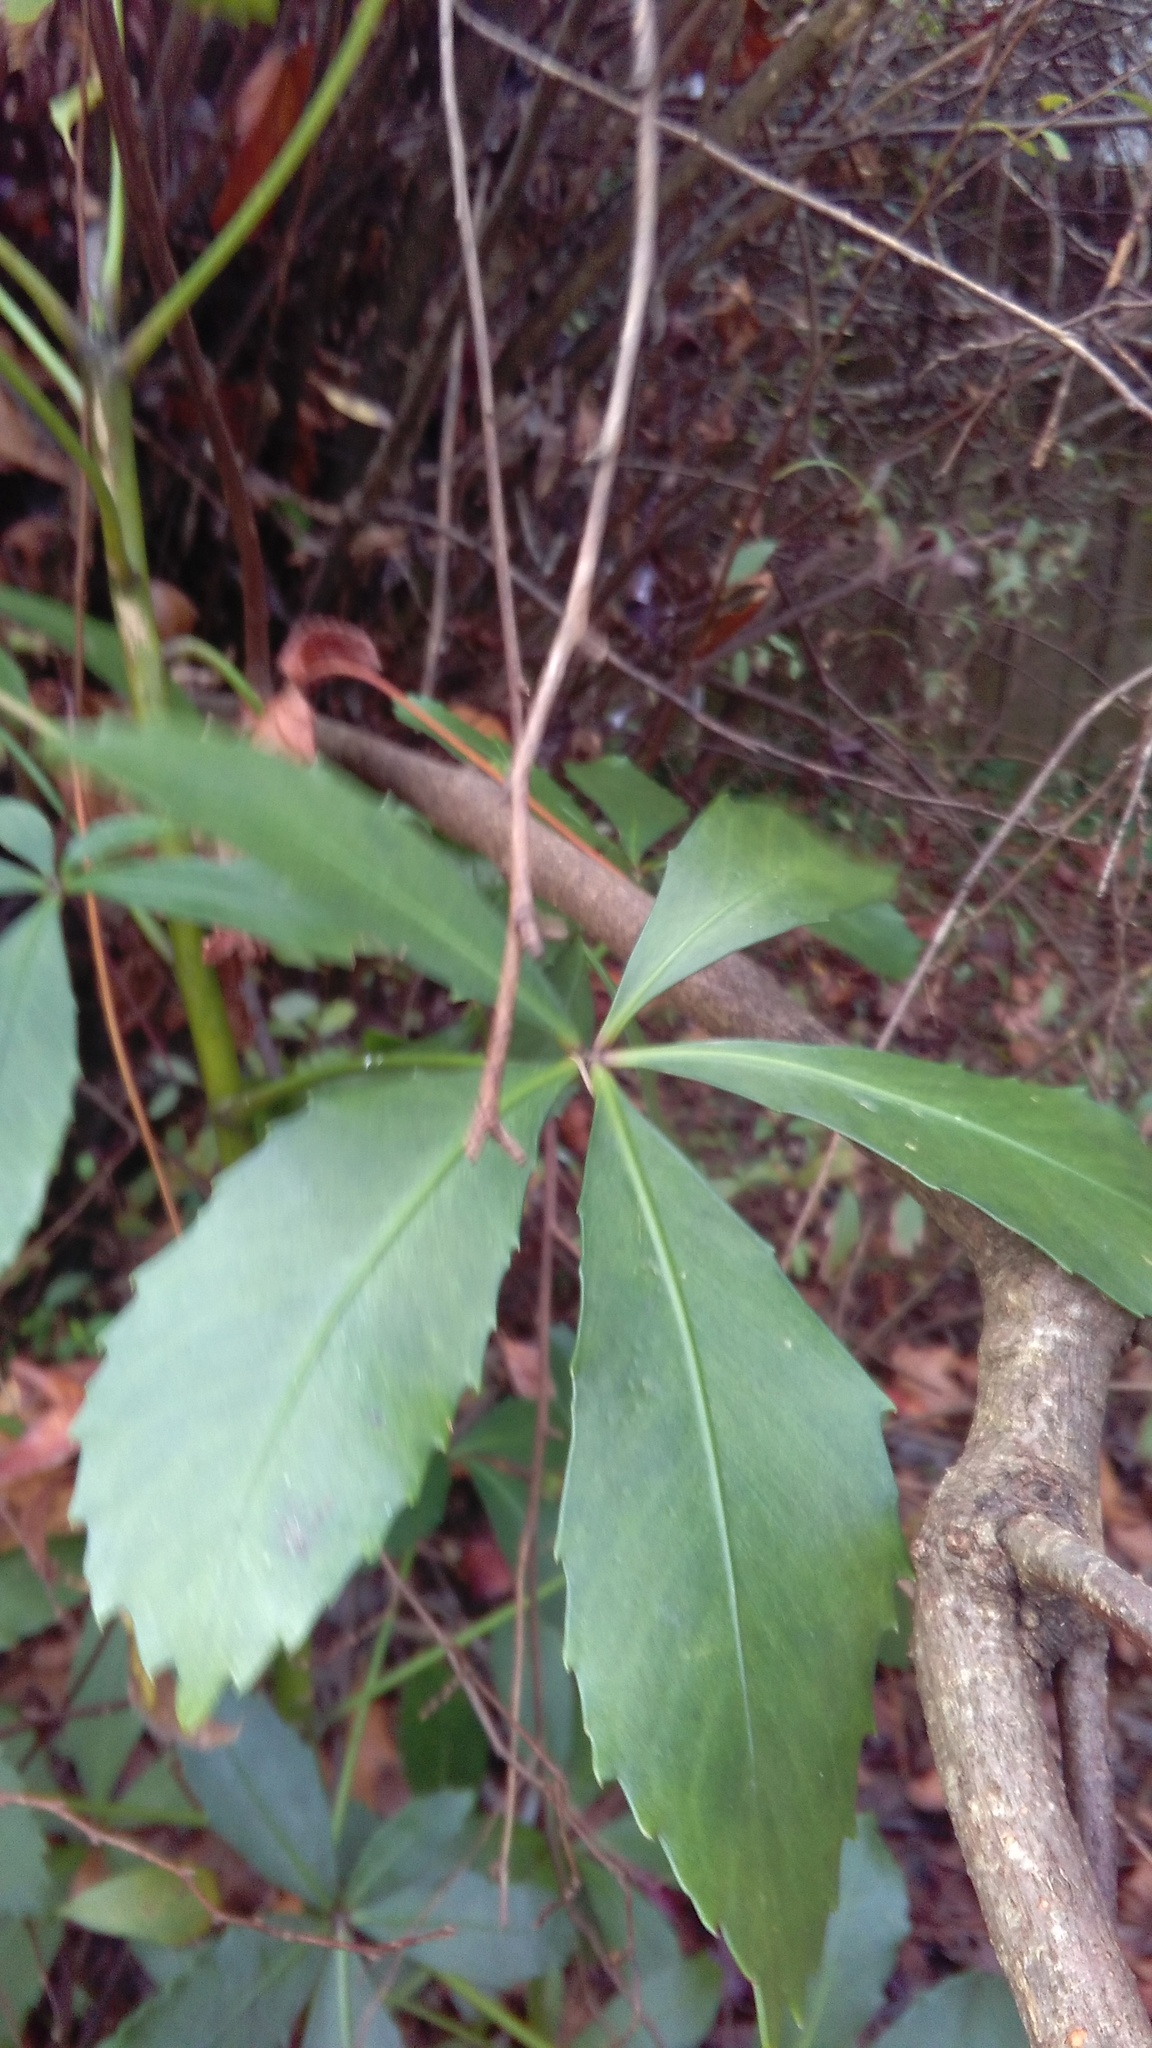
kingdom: Plantae
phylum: Tracheophyta
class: Magnoliopsida
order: Apiales
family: Araliaceae
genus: Pseudopanax
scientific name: Pseudopanax lessonii
